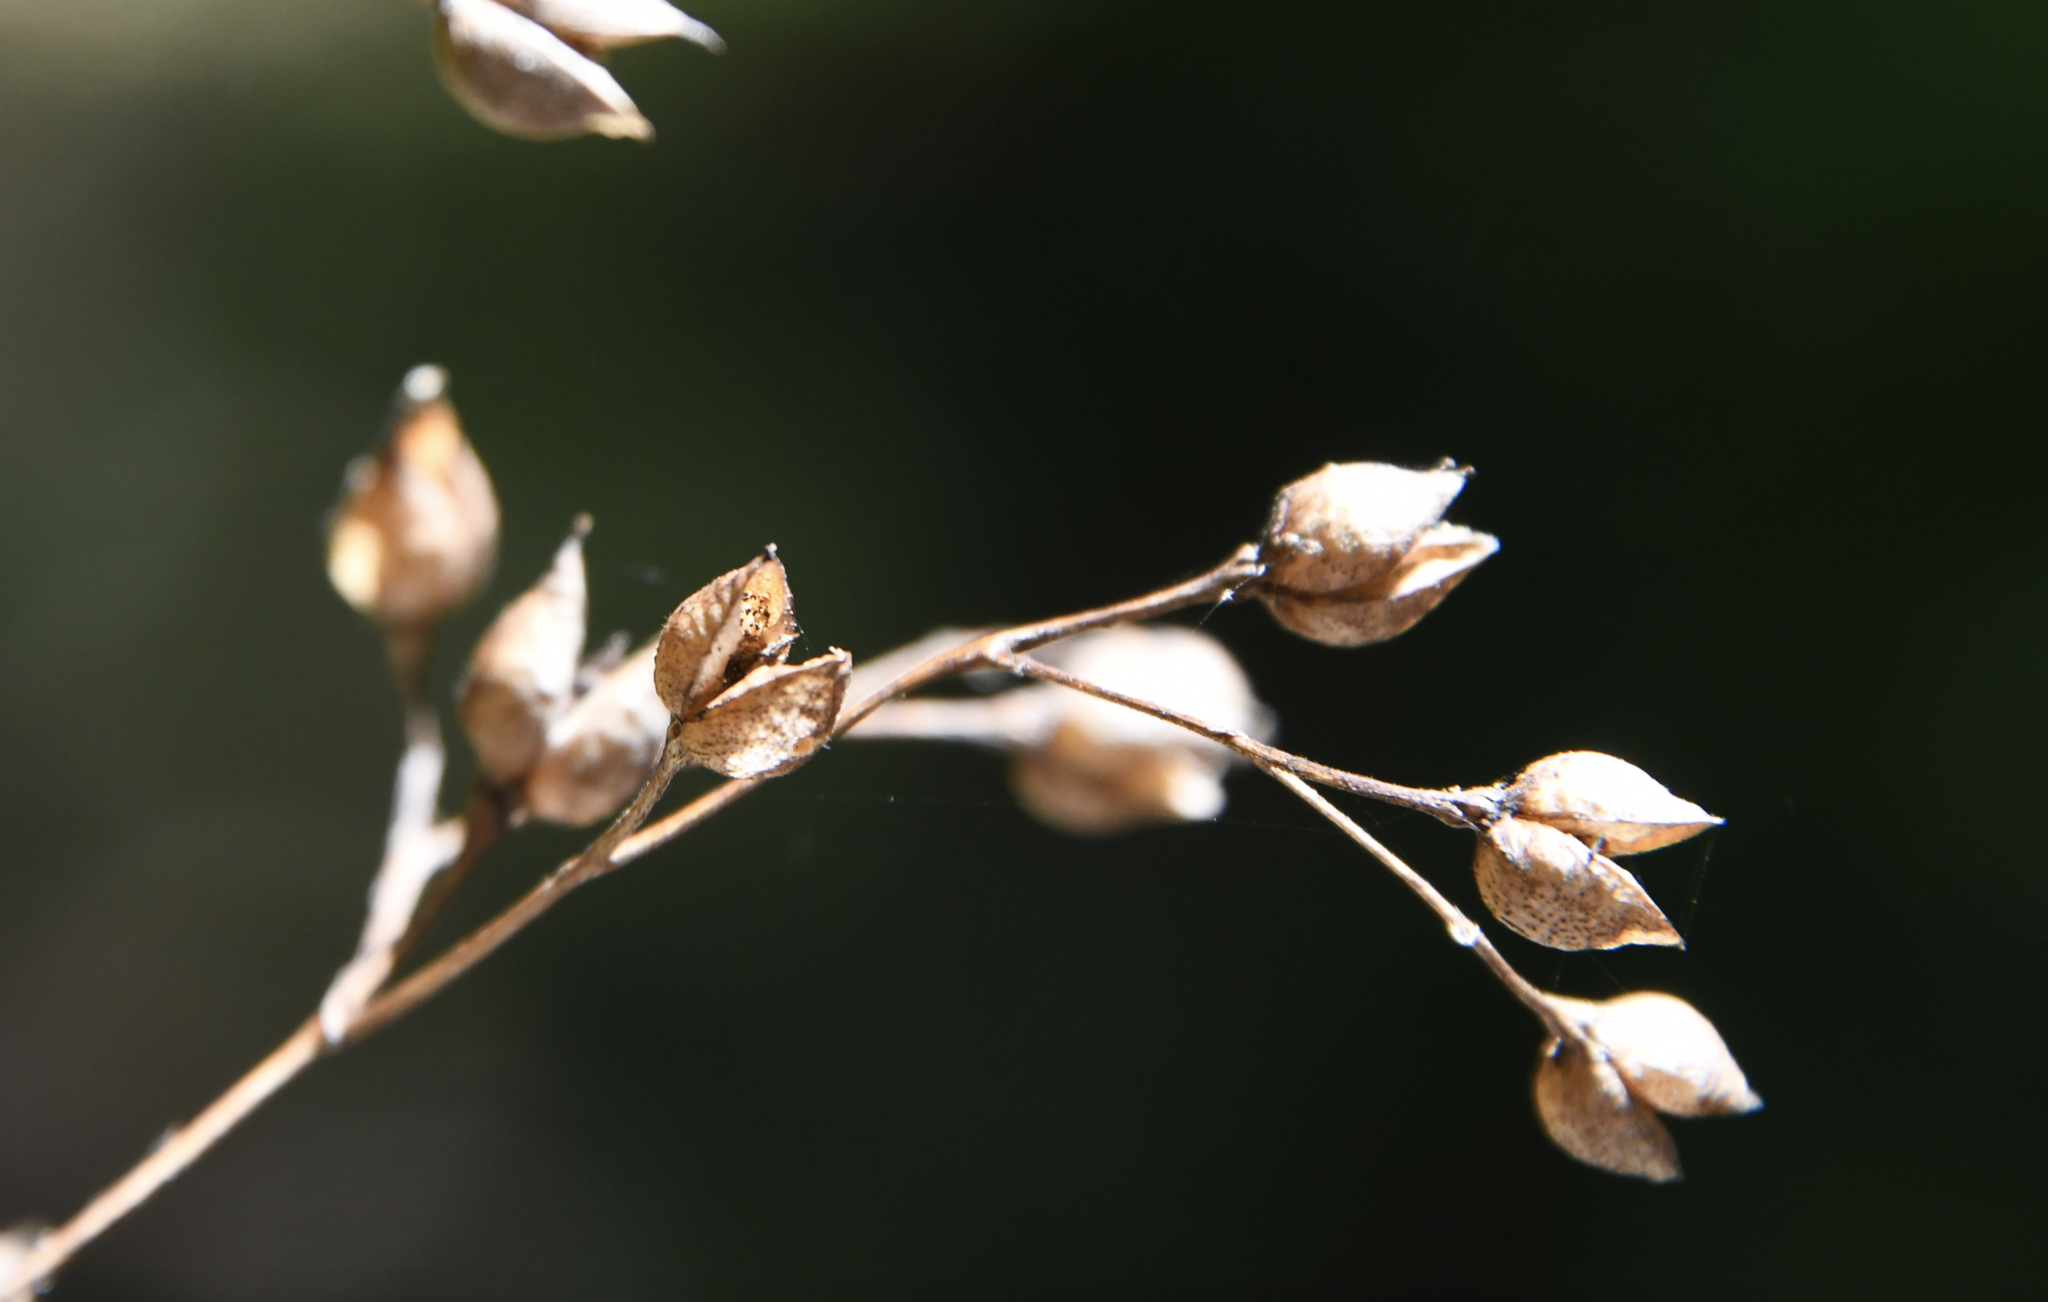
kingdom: Plantae
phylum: Tracheophyta
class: Magnoliopsida
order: Lamiales
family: Scrophulariaceae
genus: Scrophularia
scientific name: Scrophularia californica
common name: California figwort
